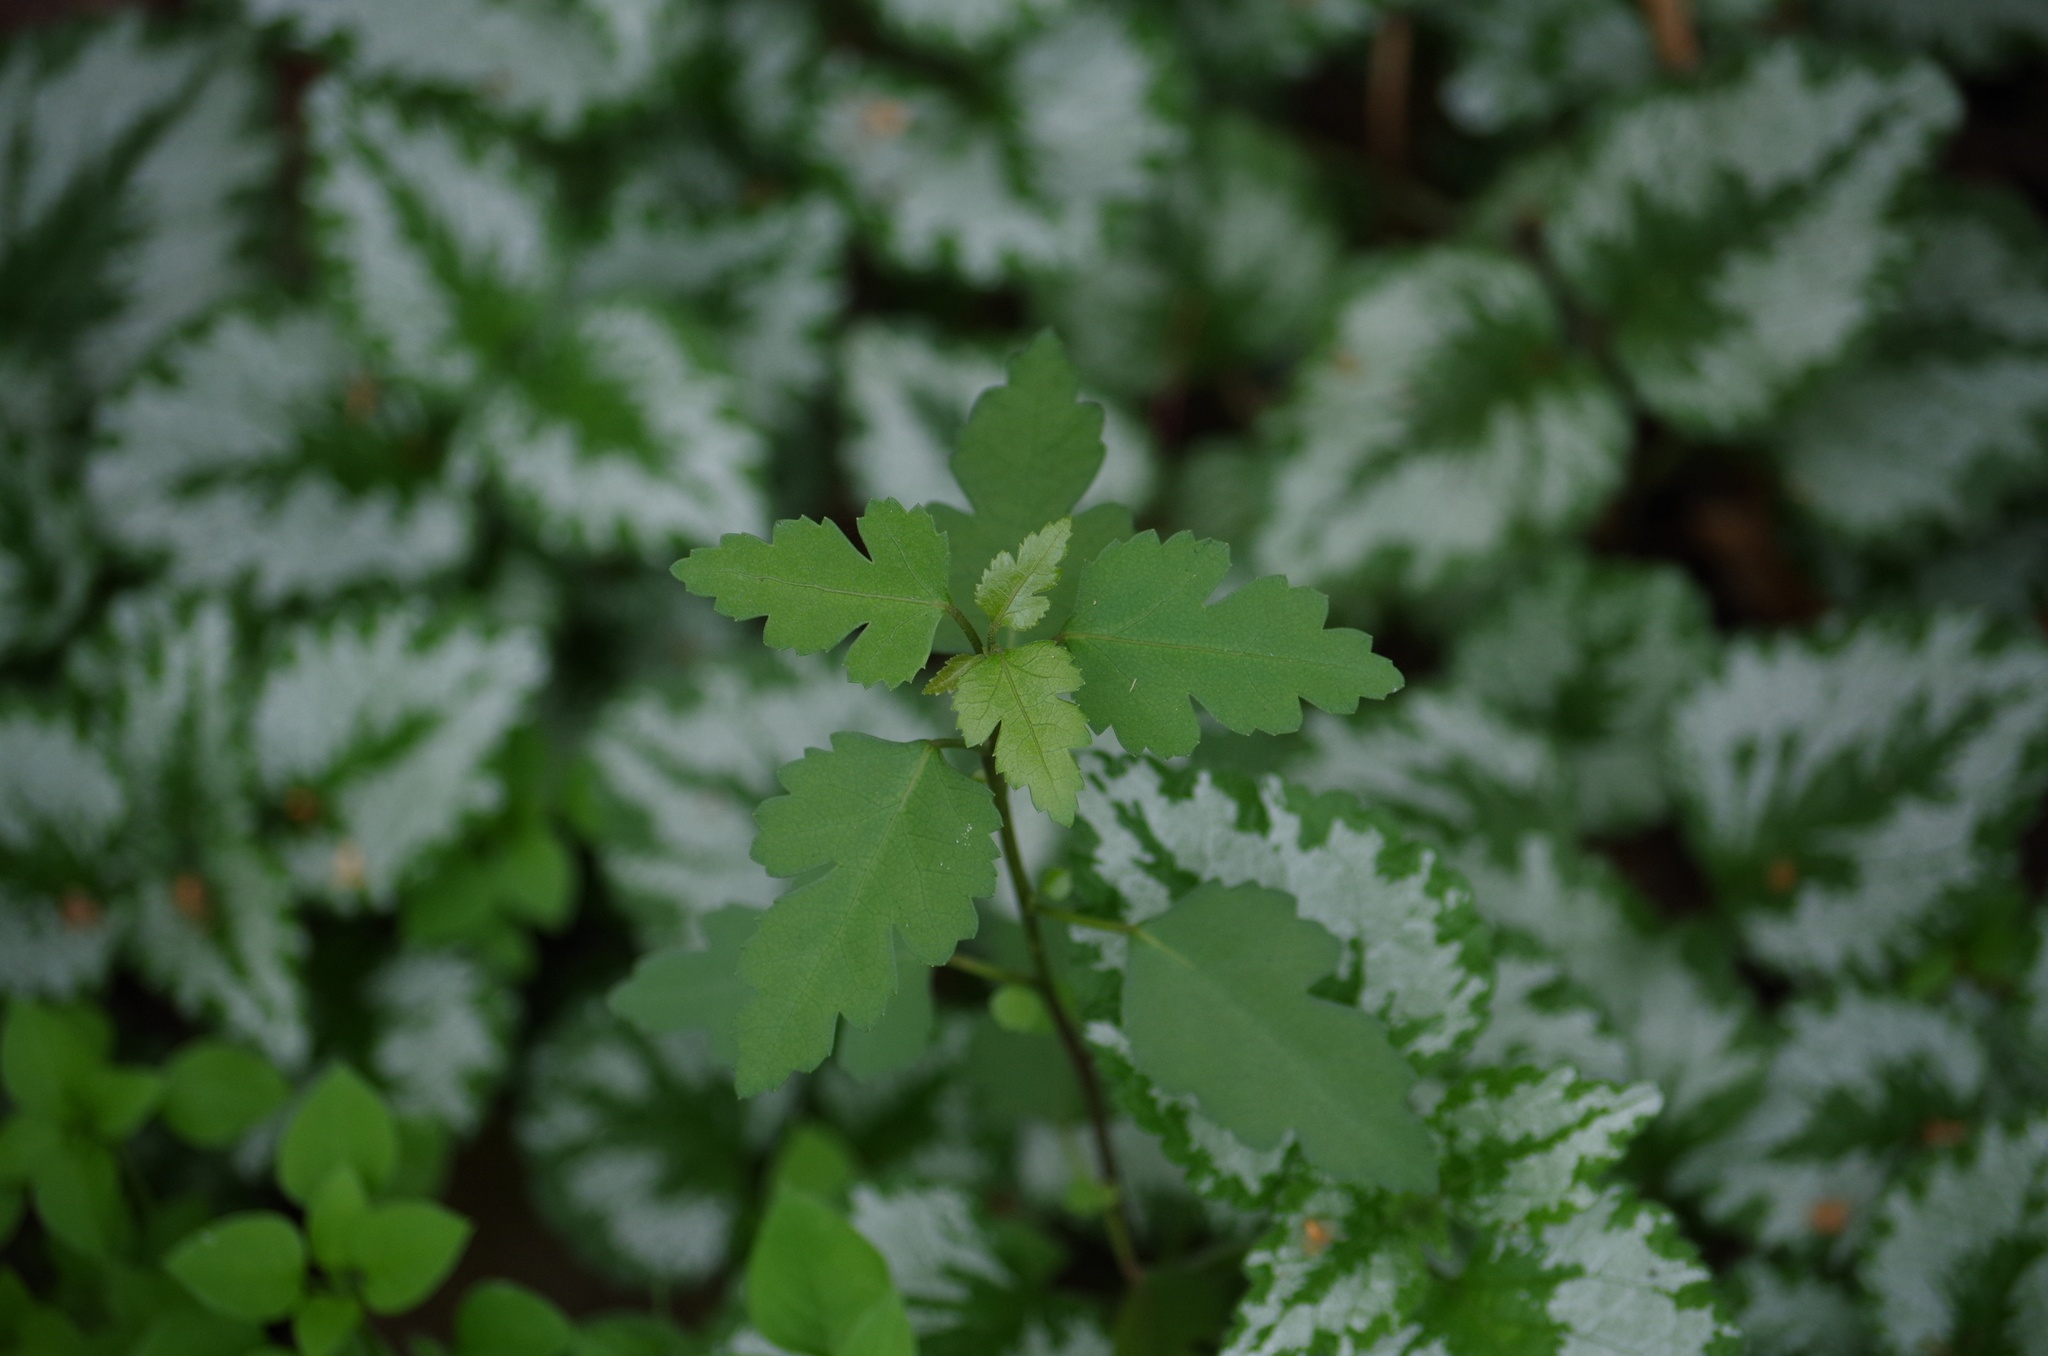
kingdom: Plantae
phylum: Tracheophyta
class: Magnoliopsida
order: Malvales
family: Malvaceae
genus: Hoheria
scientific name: Hoheria sexstylosa
